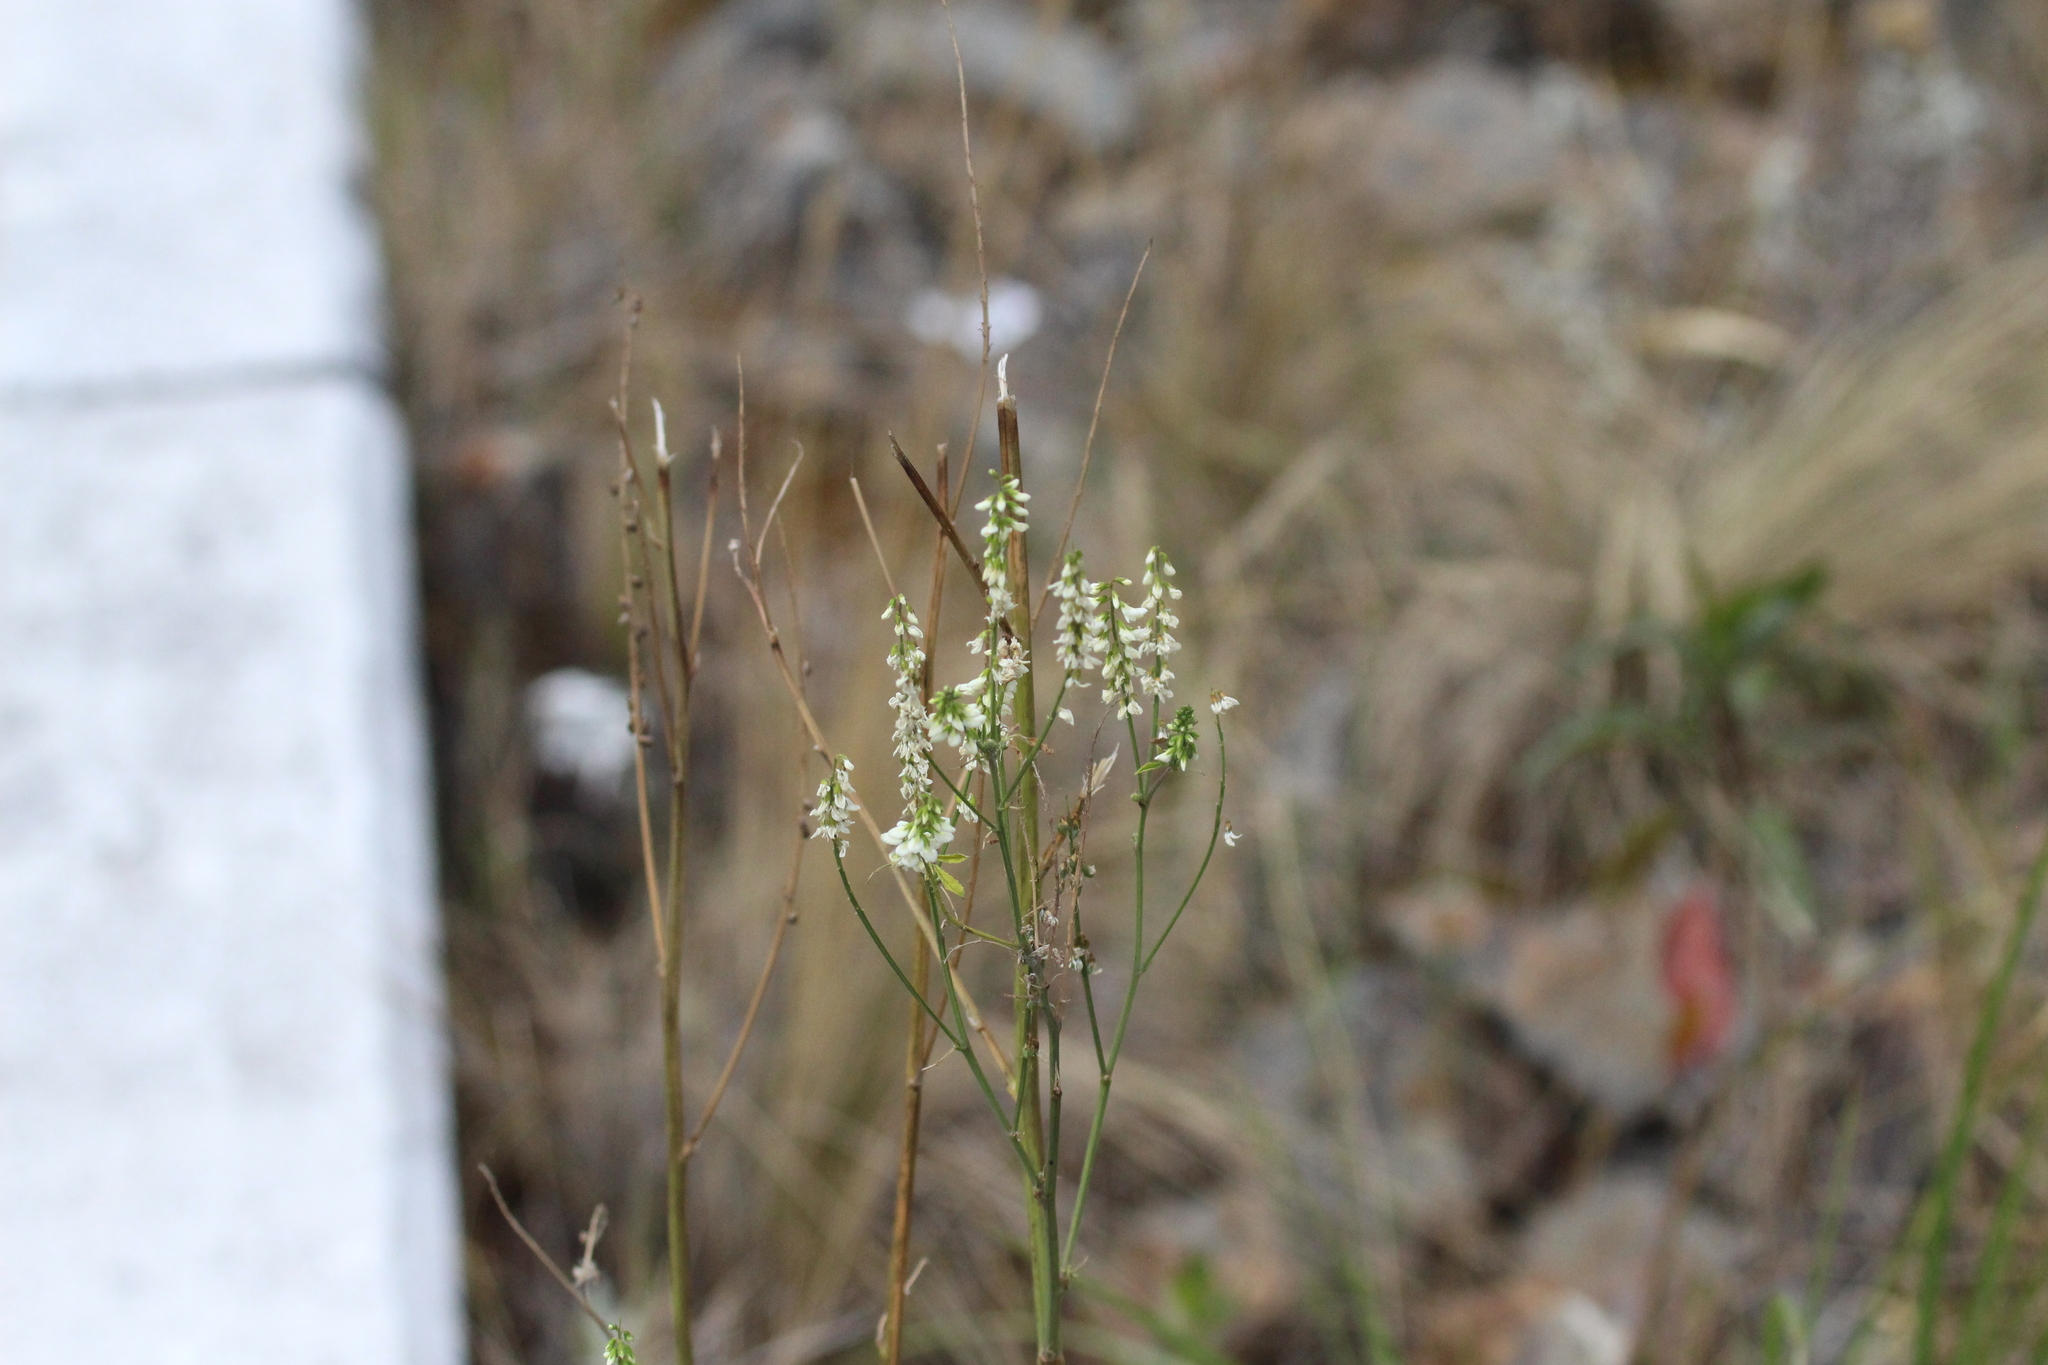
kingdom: Plantae
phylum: Tracheophyta
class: Magnoliopsida
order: Fabales
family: Fabaceae
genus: Melilotus
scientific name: Melilotus albus
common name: White melilot
